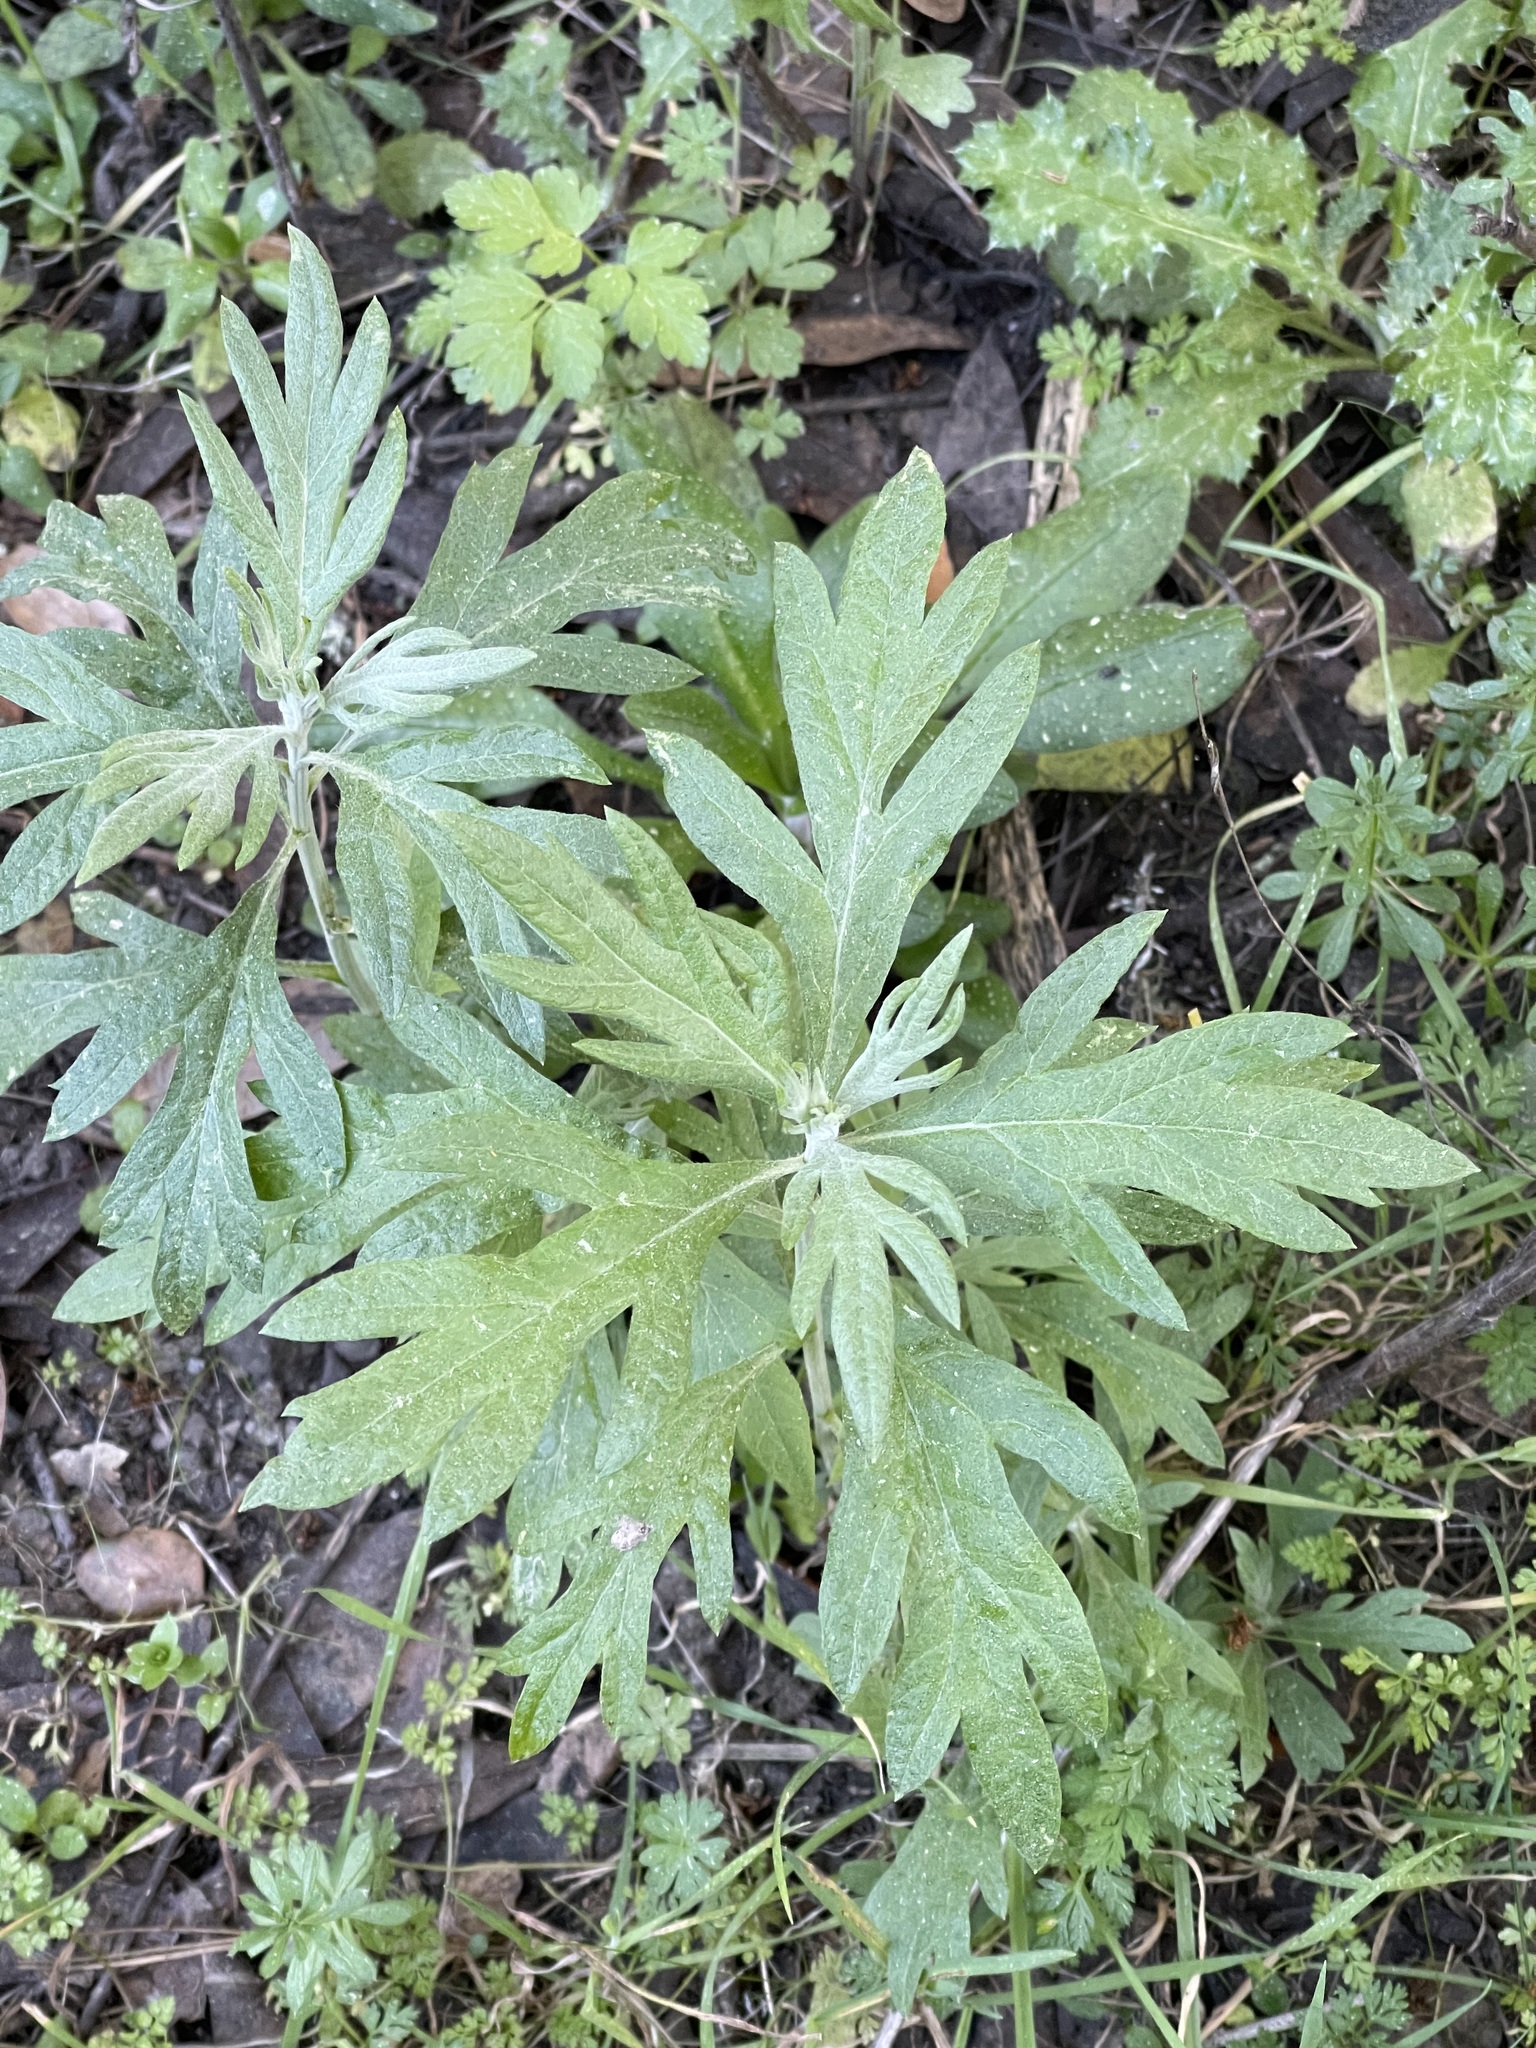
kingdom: Plantae
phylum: Tracheophyta
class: Magnoliopsida
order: Asterales
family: Asteraceae
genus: Artemisia
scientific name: Artemisia douglasiana
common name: Northwest mugwort
